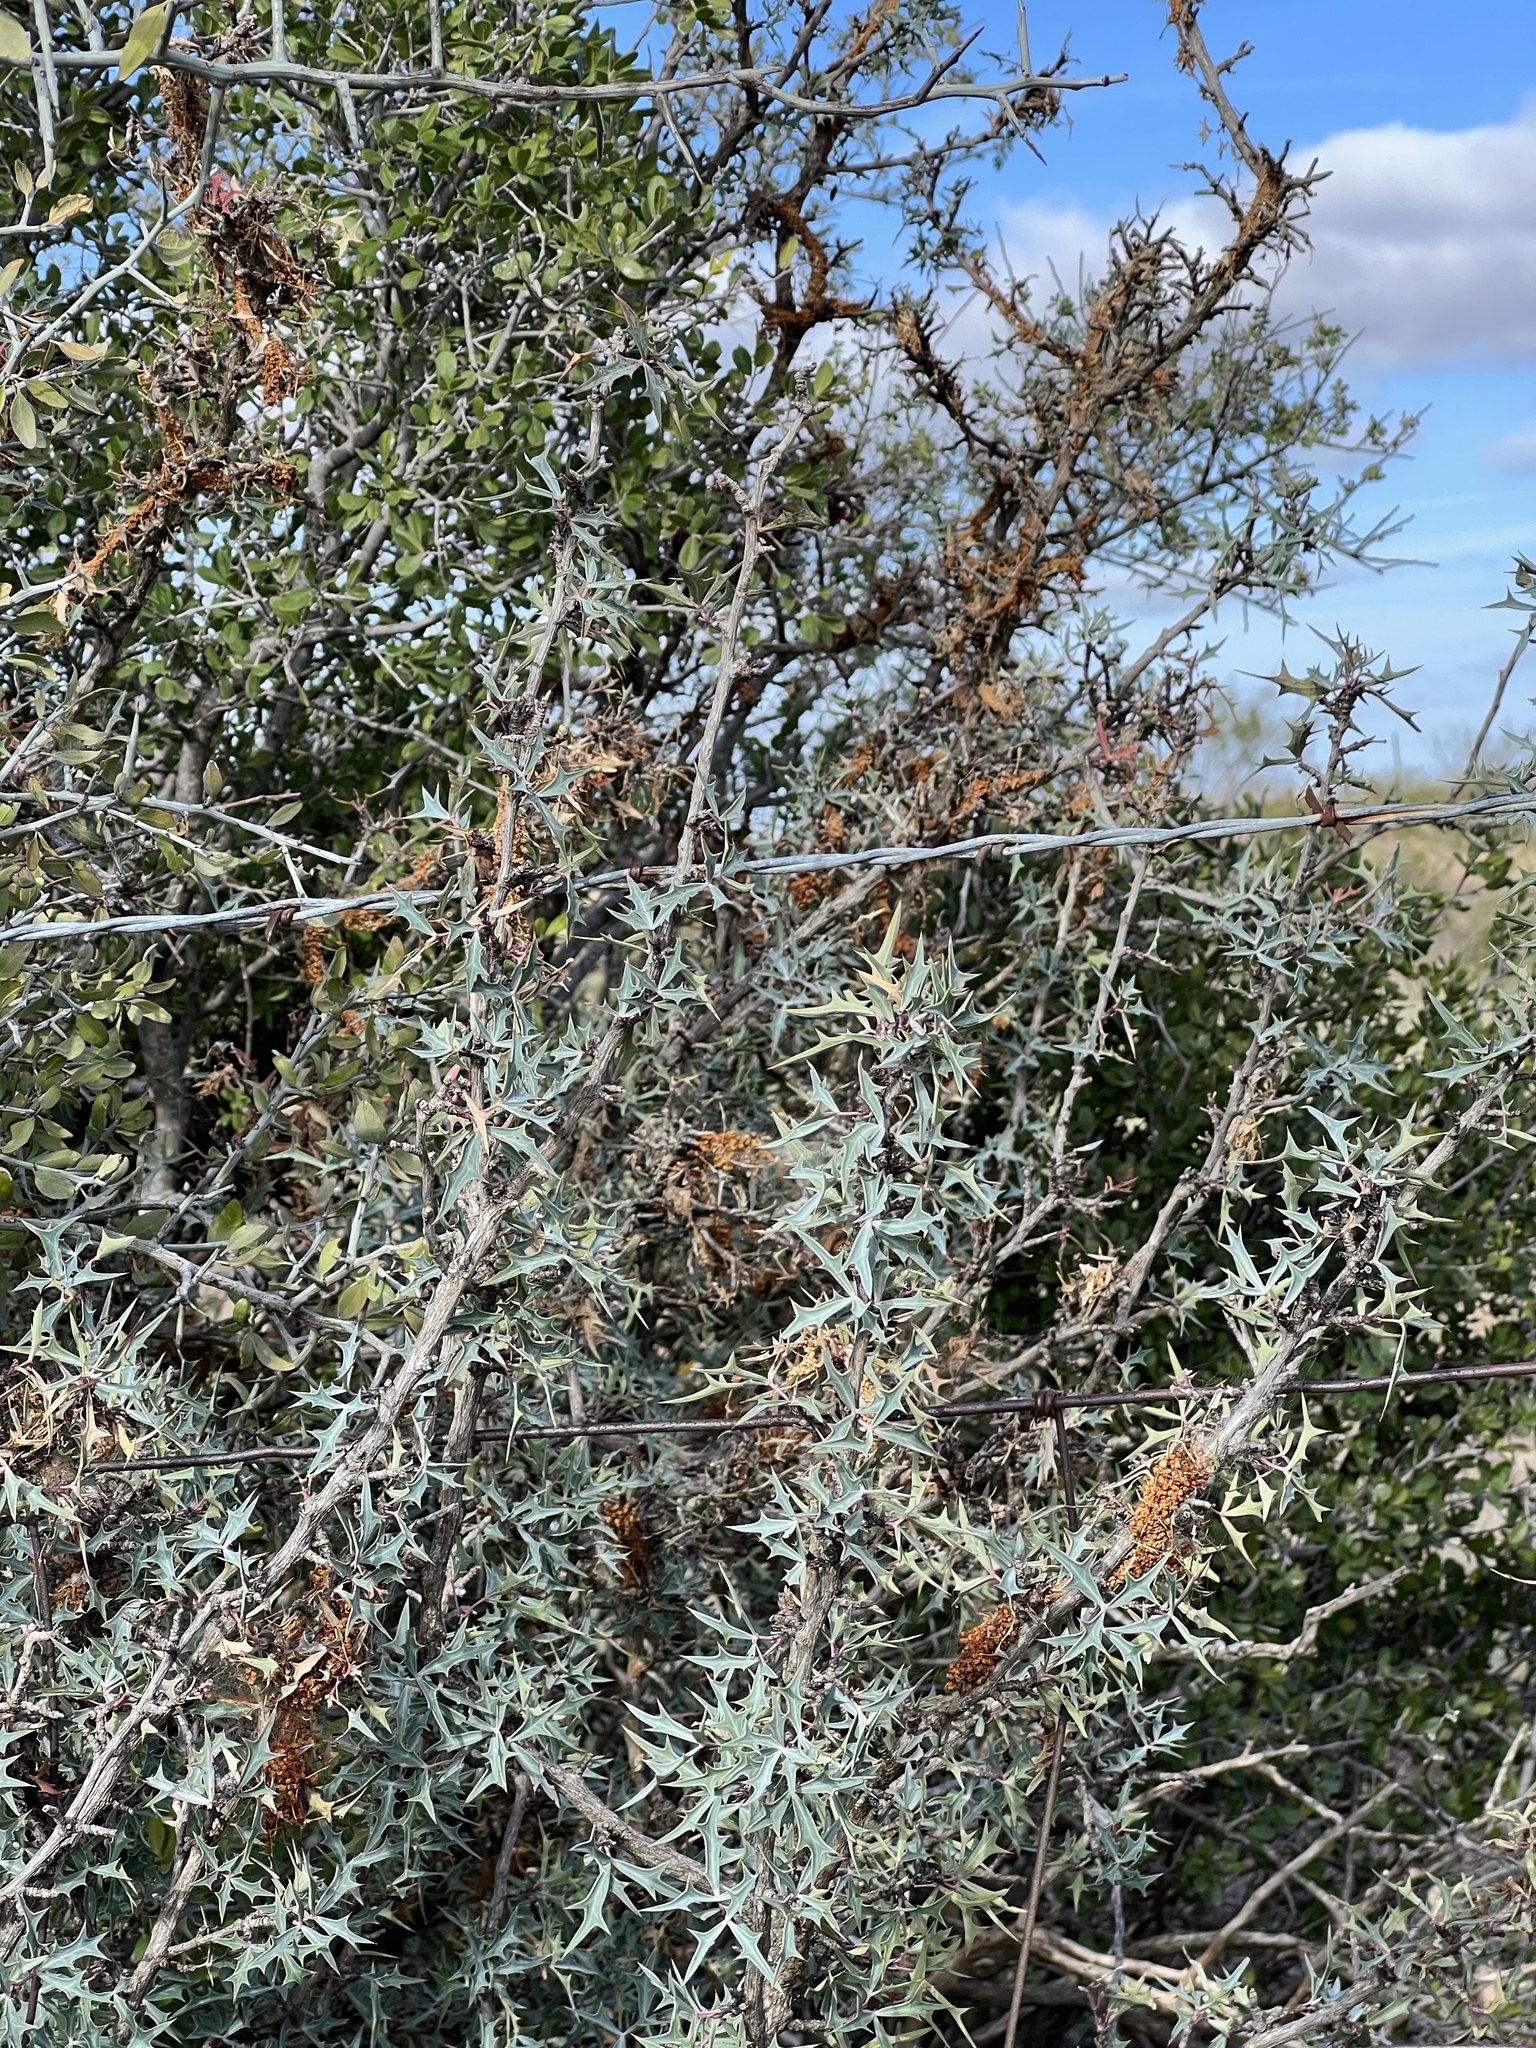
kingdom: Plantae
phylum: Tracheophyta
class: Magnoliopsida
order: Ranunculales
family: Berberidaceae
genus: Alloberberis
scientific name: Alloberberis trifoliolata
